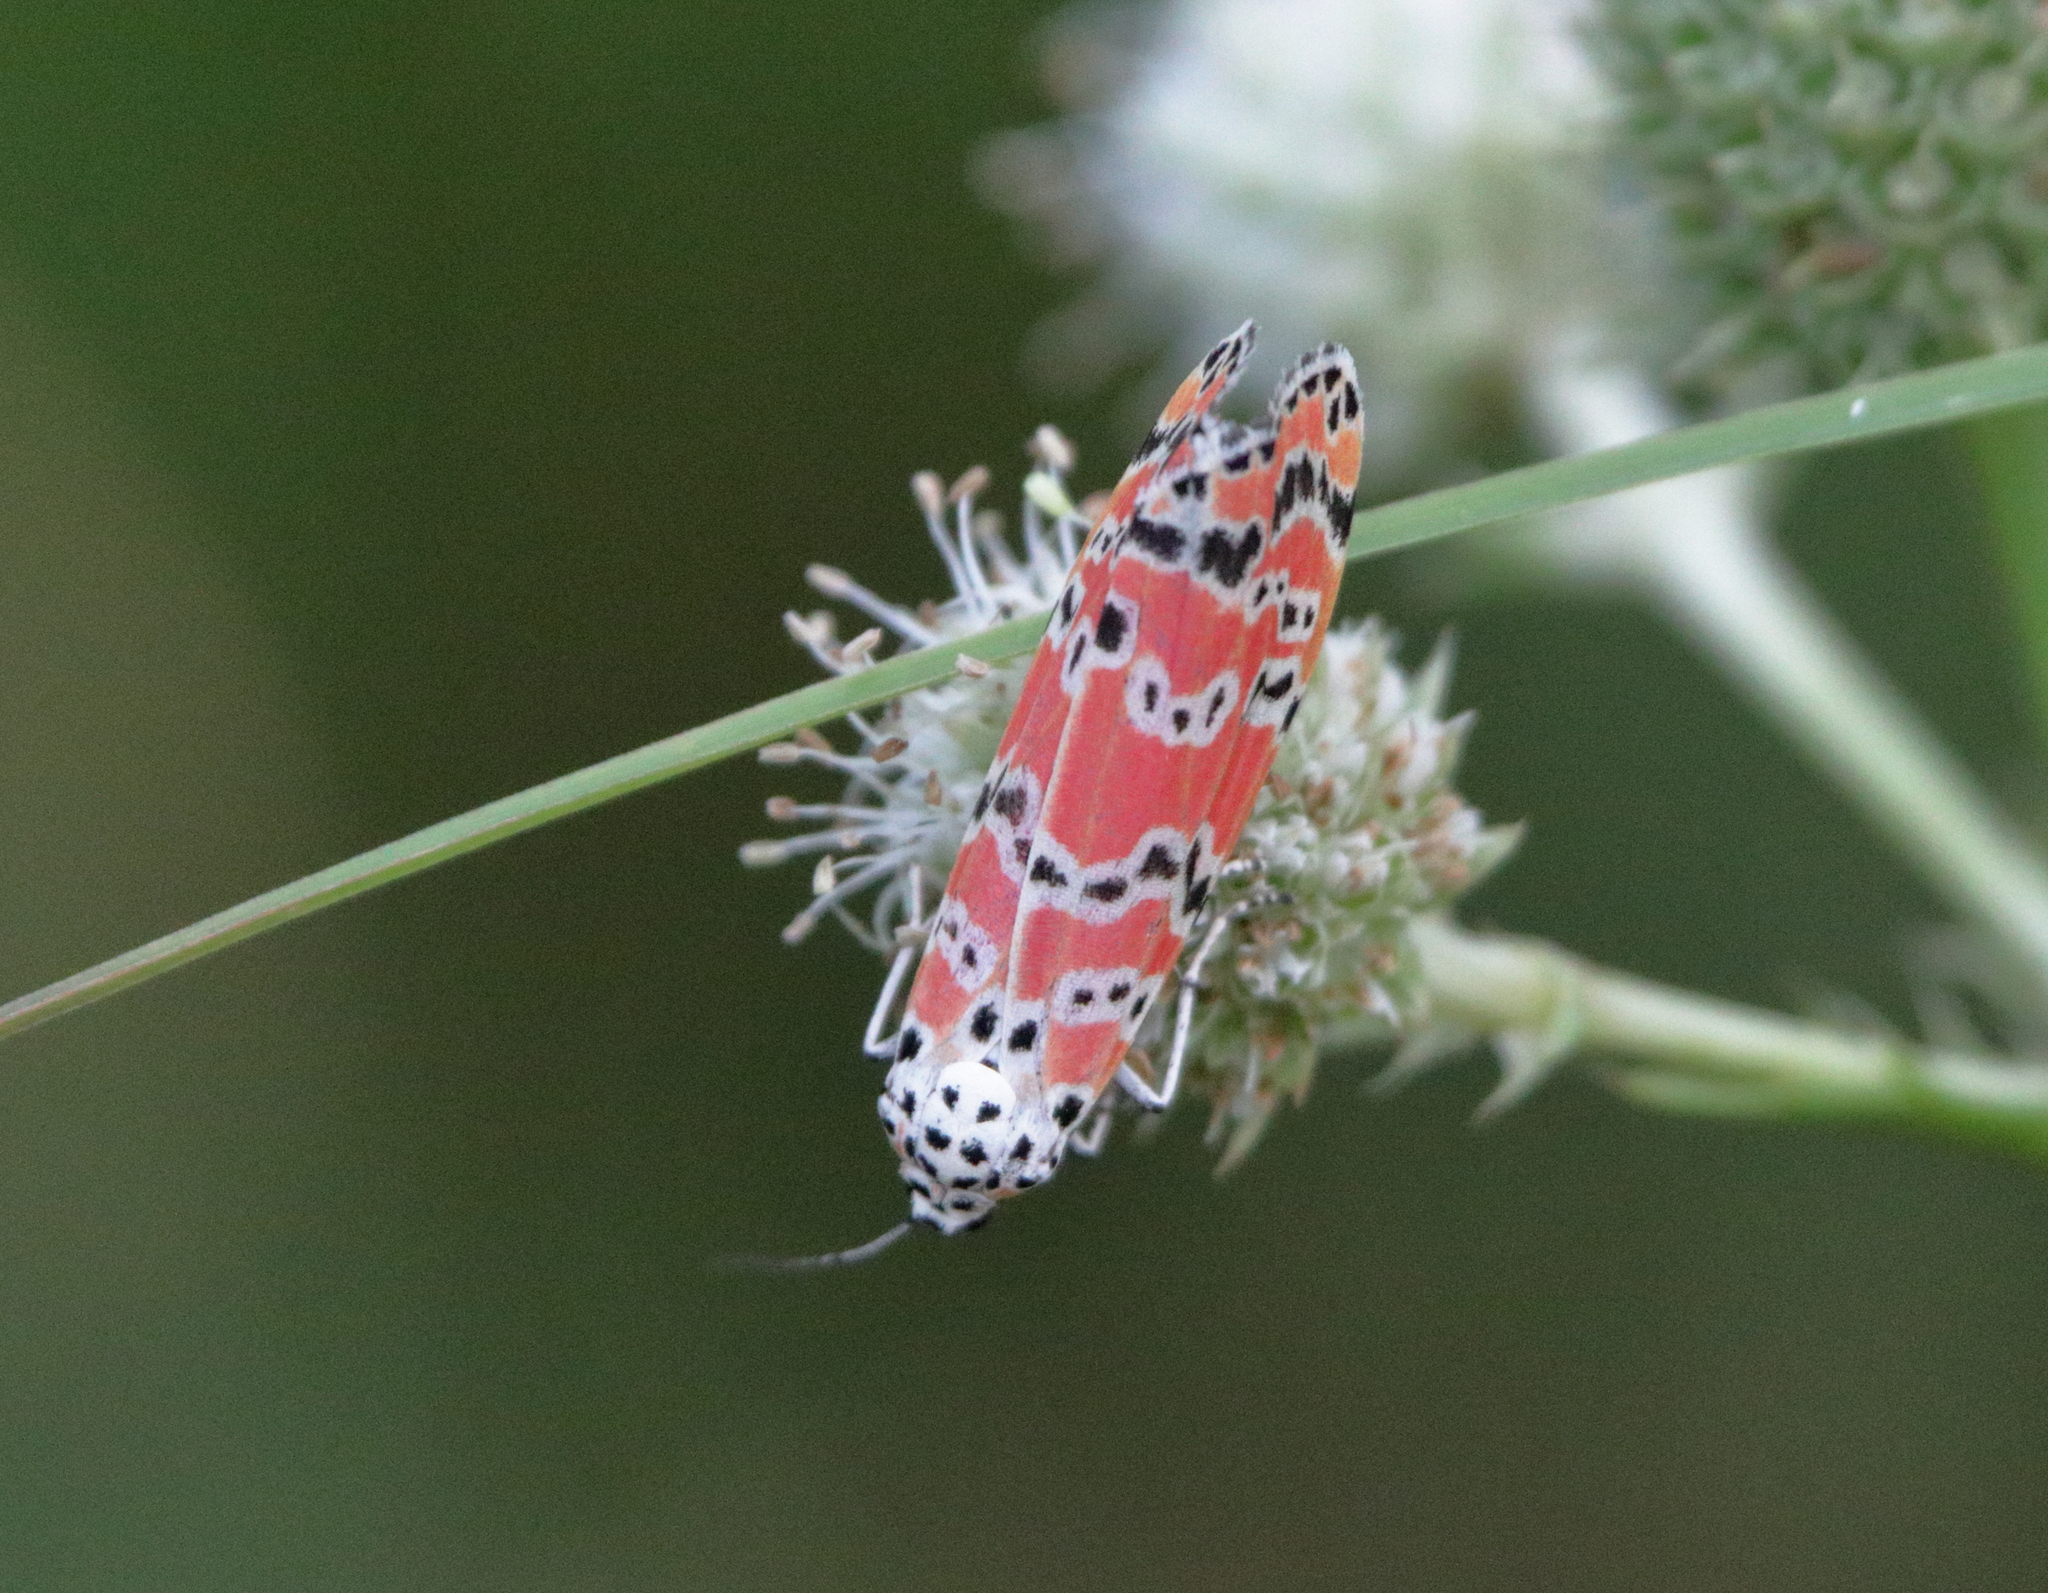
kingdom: Animalia
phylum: Arthropoda
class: Insecta
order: Lepidoptera
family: Erebidae
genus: Utetheisa
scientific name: Utetheisa ornatrix
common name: Beautiful utetheisa
